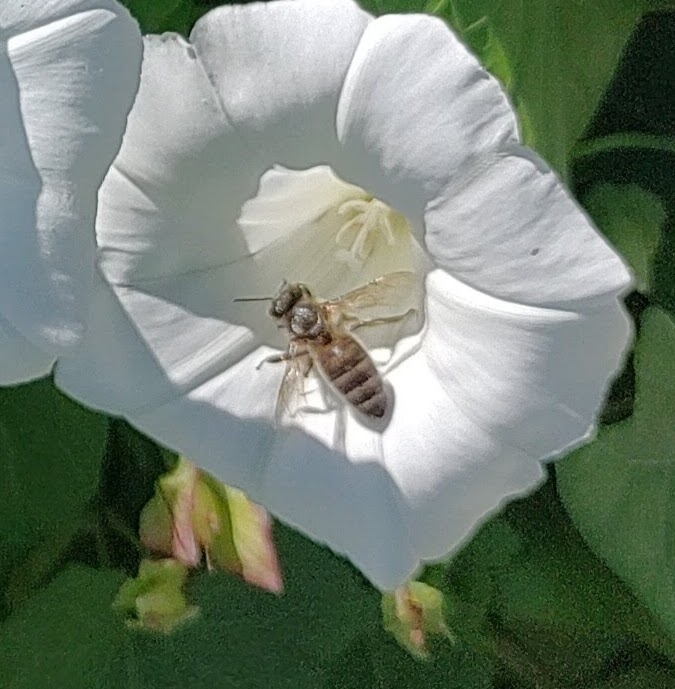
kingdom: Animalia
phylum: Arthropoda
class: Insecta
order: Hymenoptera
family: Apidae
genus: Apis
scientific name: Apis mellifera
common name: Honey bee
